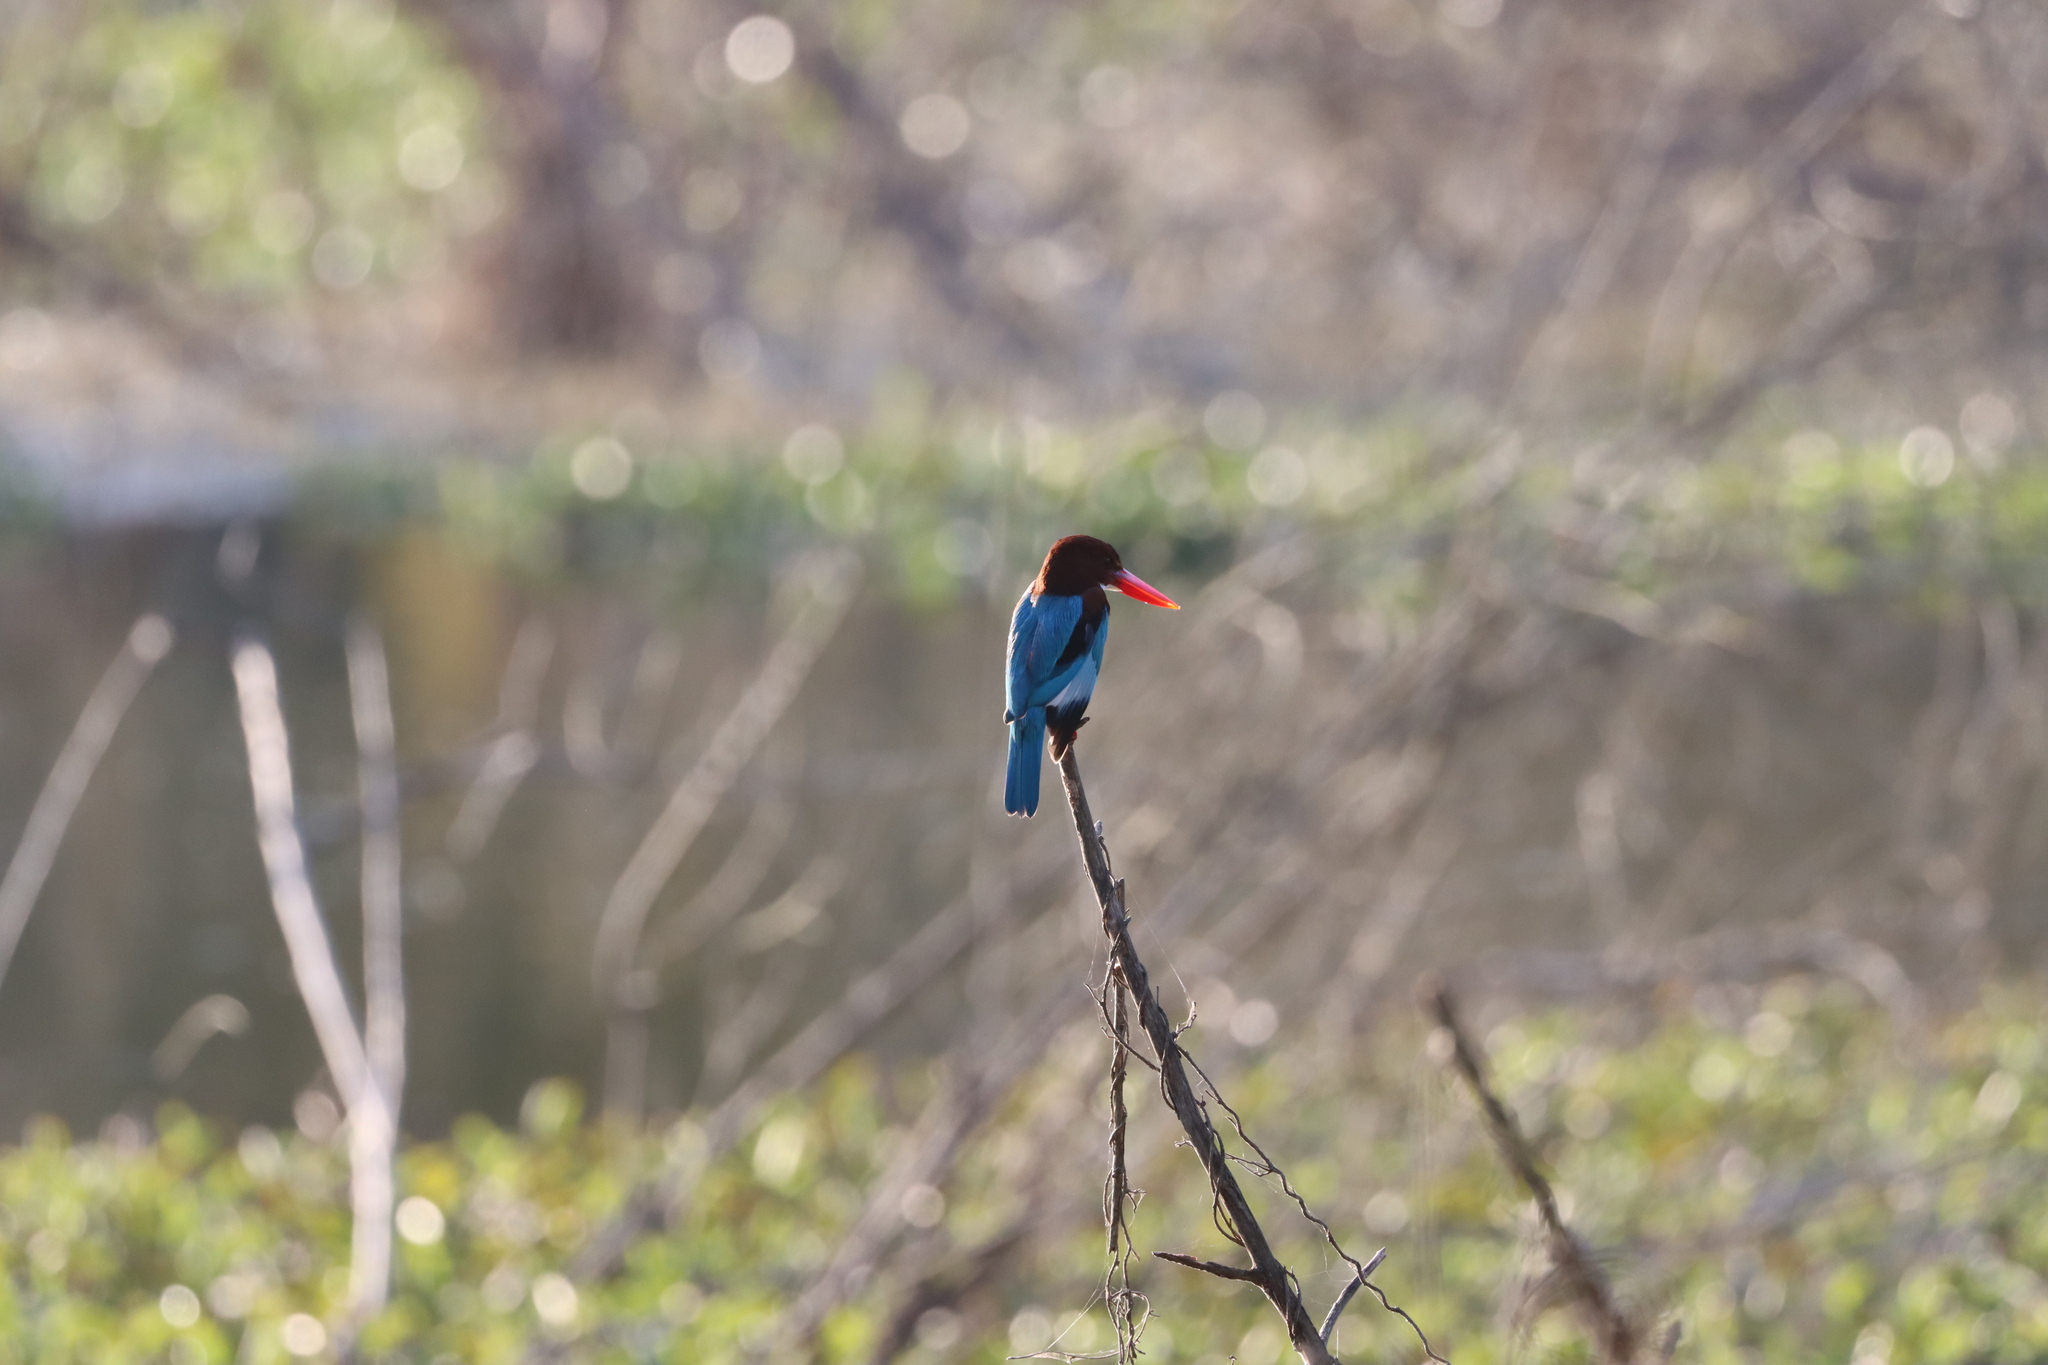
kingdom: Animalia
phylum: Chordata
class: Aves
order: Coraciiformes
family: Alcedinidae
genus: Halcyon
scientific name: Halcyon smyrnensis
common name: White-throated kingfisher
